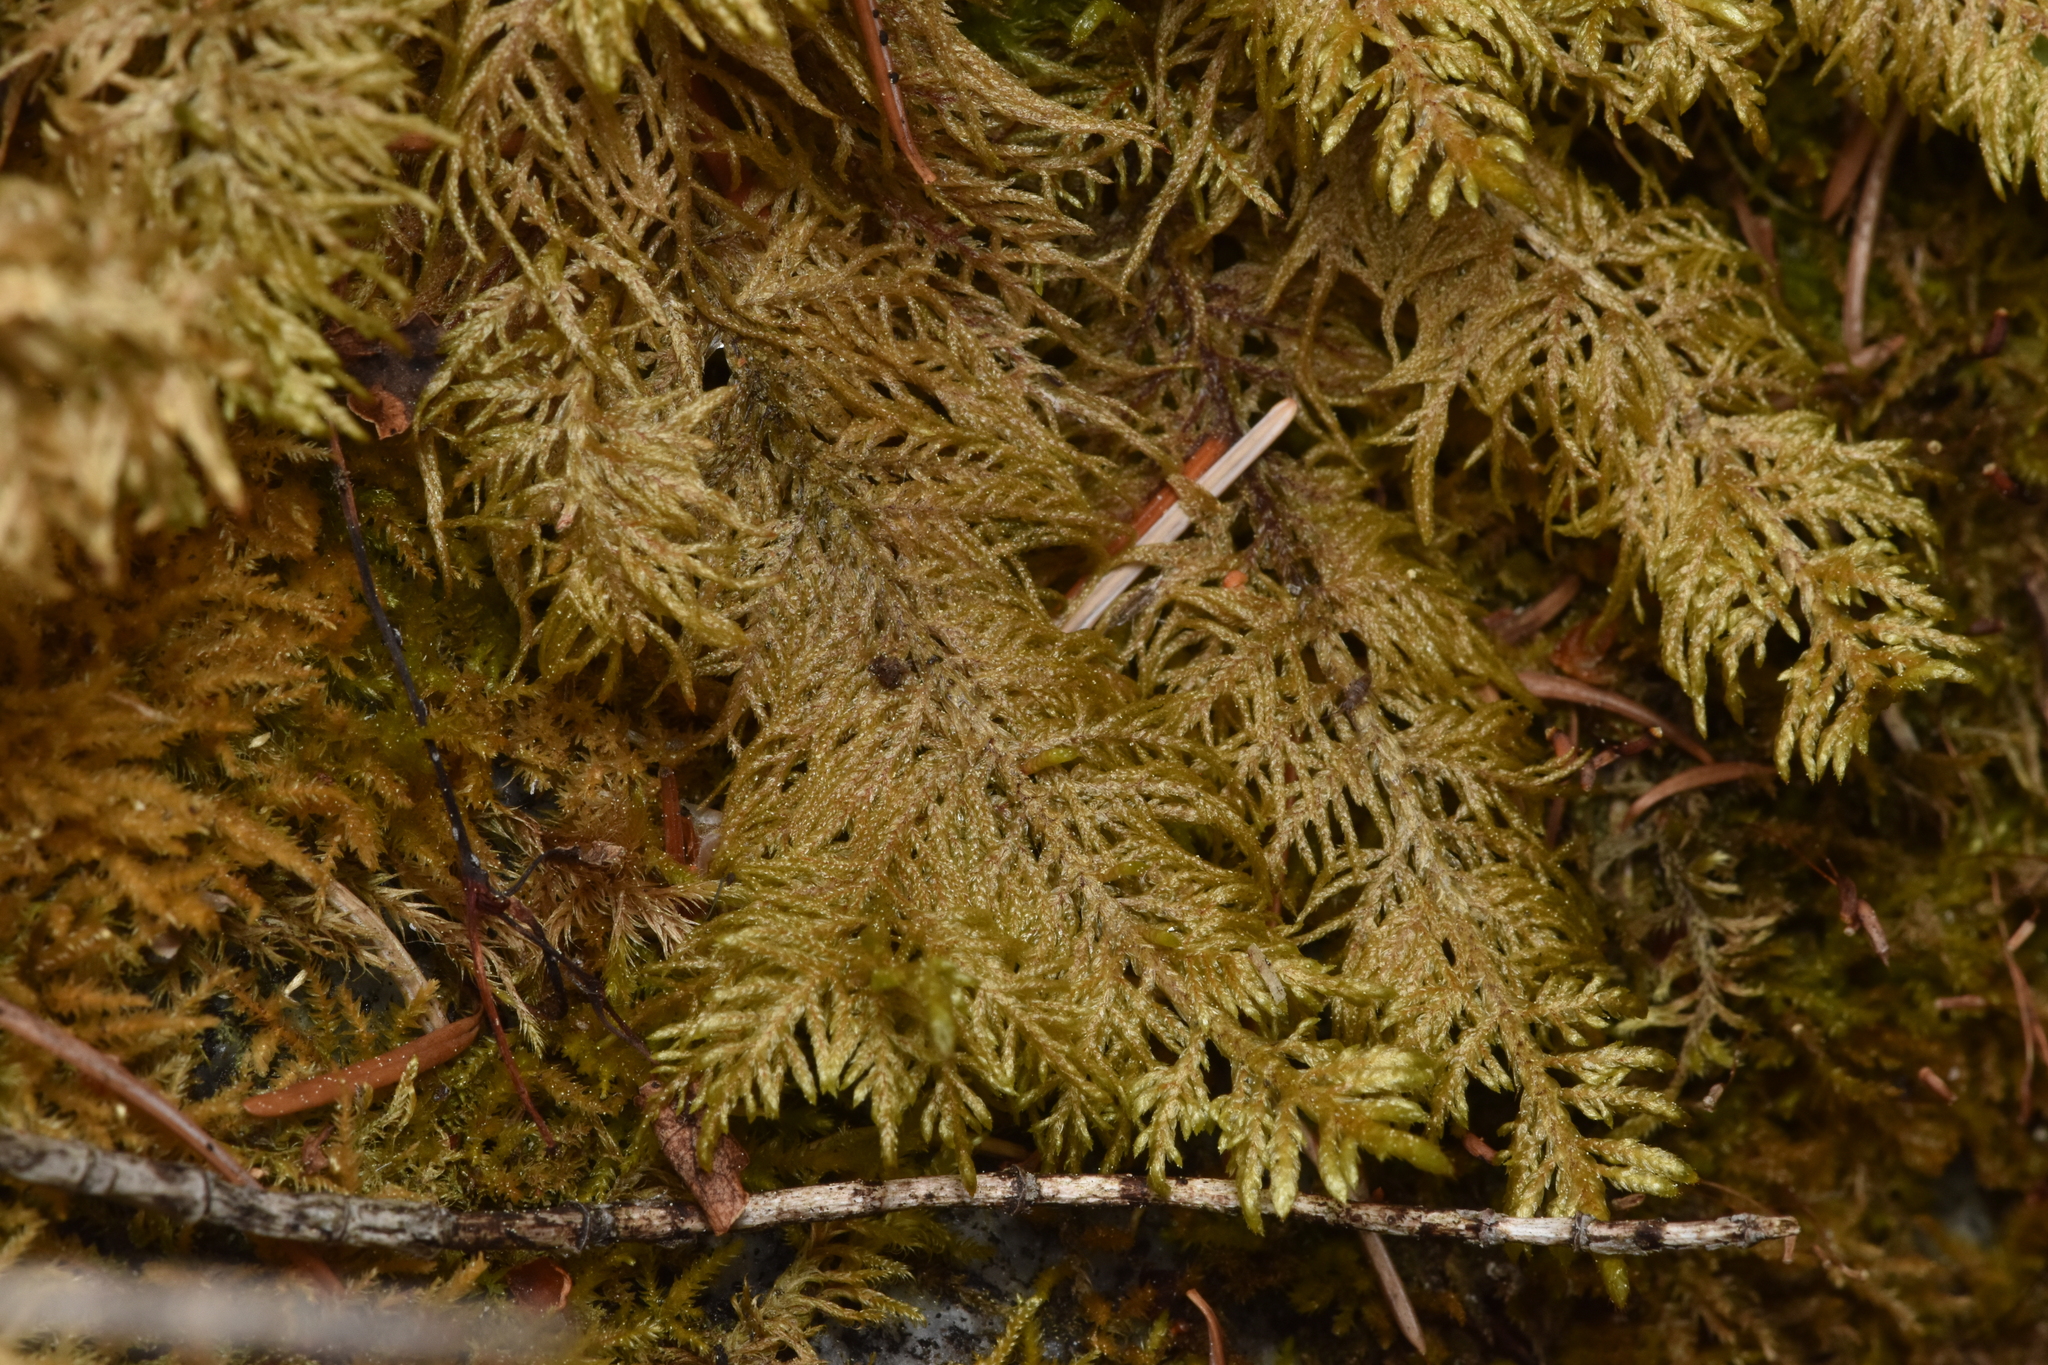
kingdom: Plantae
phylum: Bryophyta
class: Bryopsida
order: Hypnales
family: Hylocomiaceae
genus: Hylocomium
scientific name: Hylocomium splendens
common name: Stairstep moss
